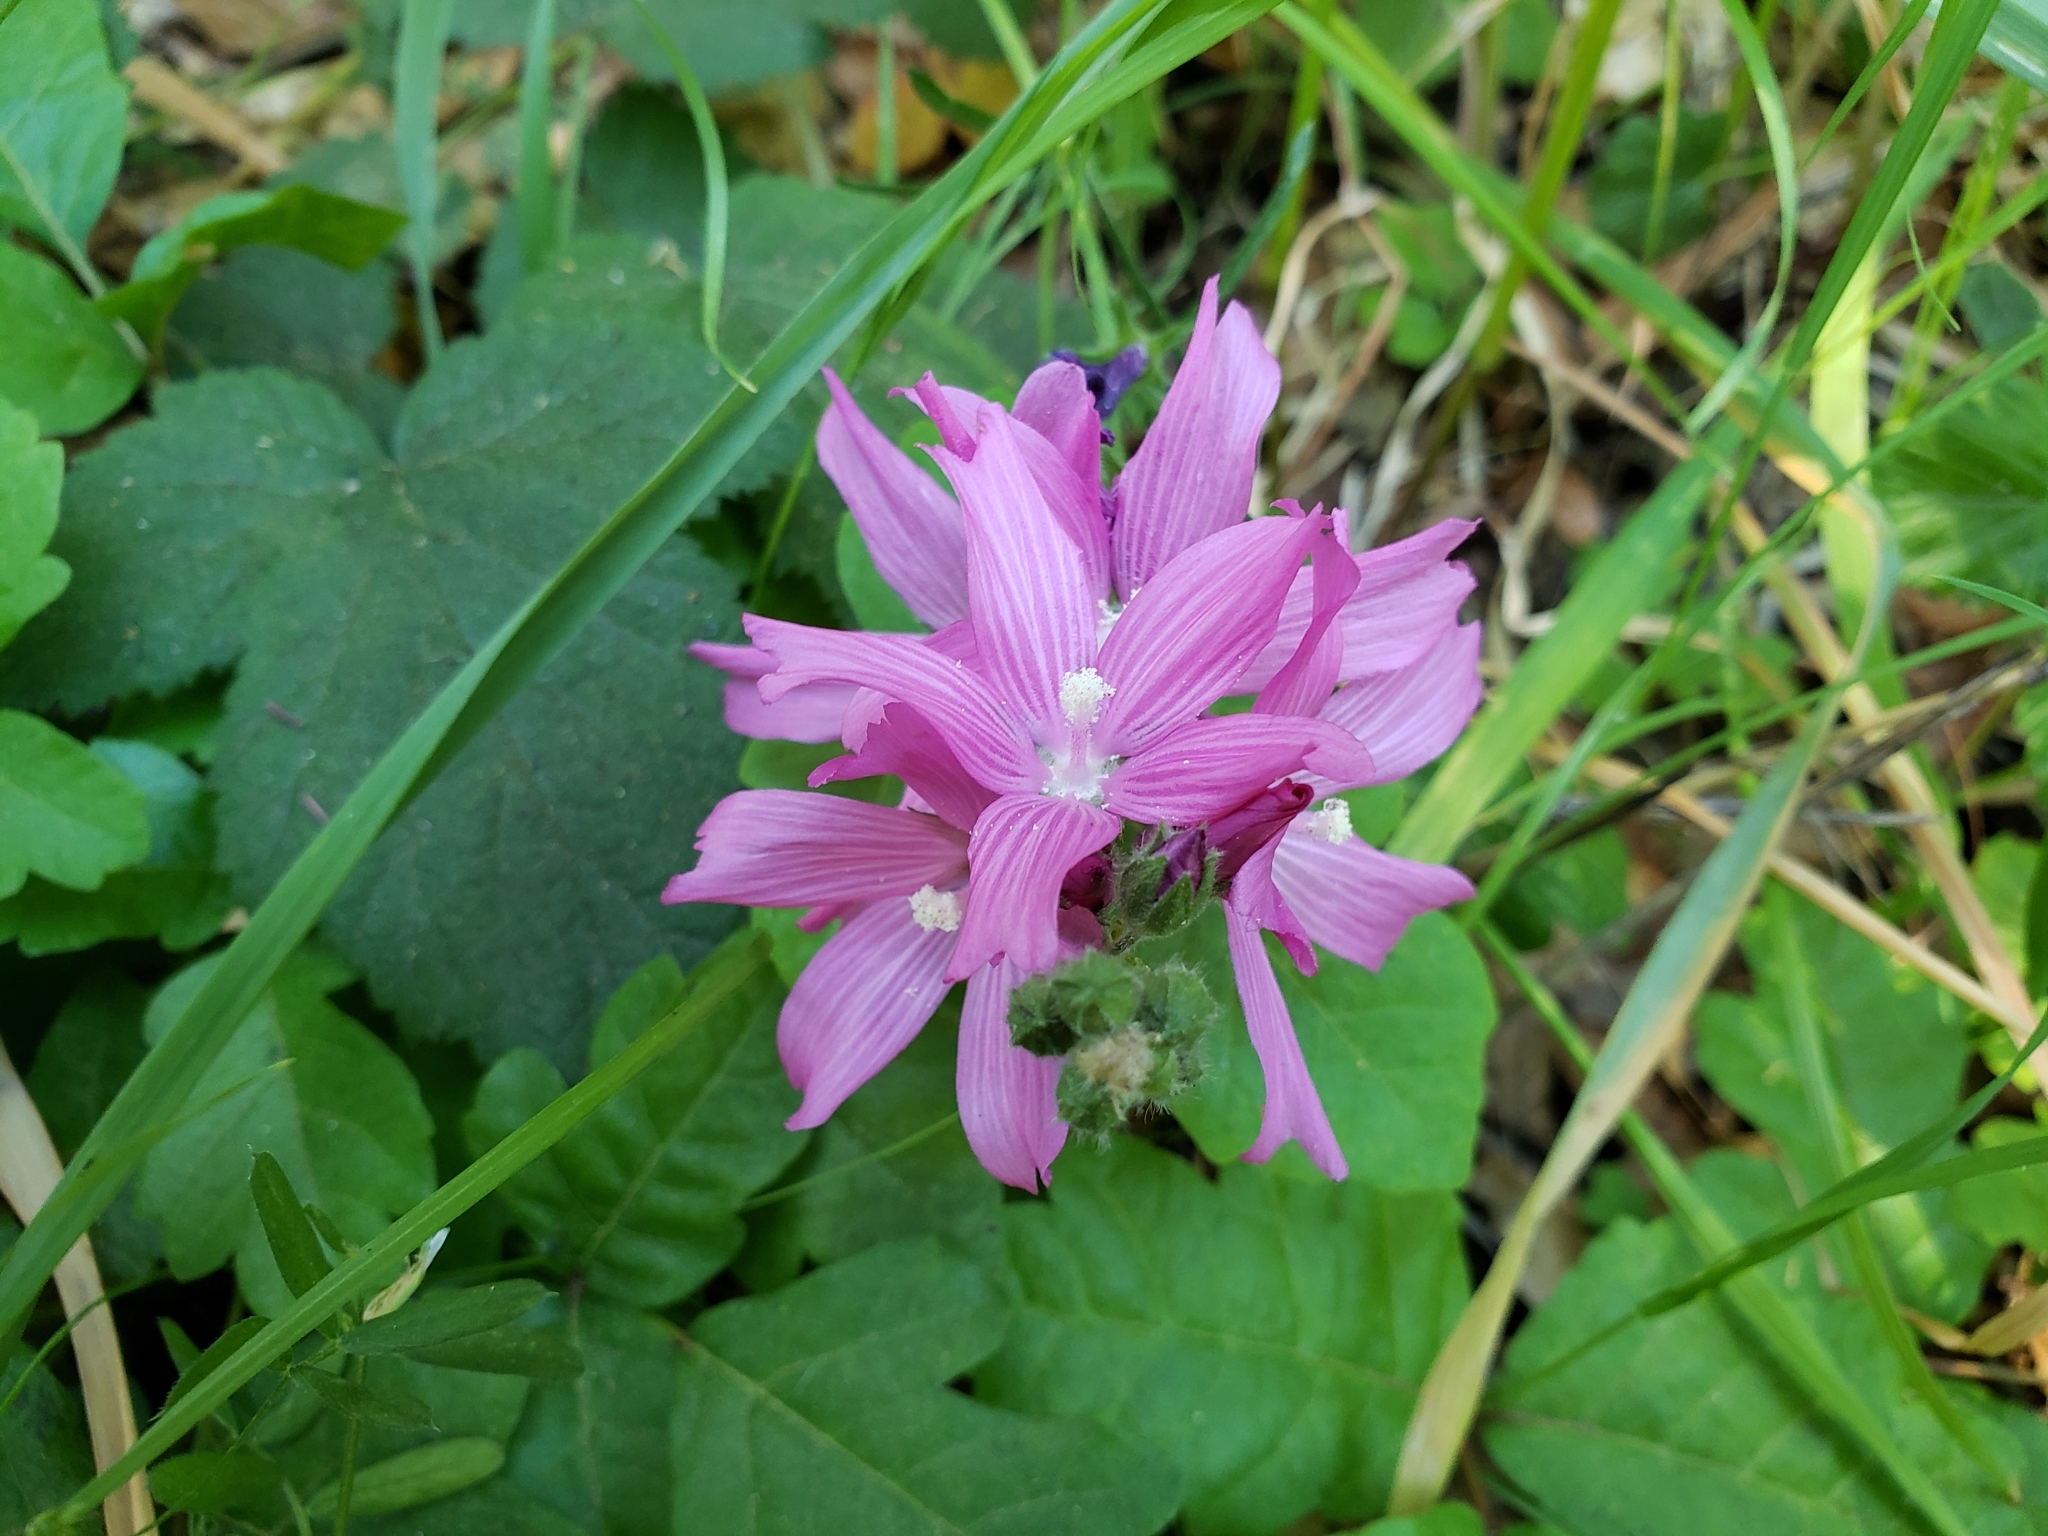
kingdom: Plantae
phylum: Tracheophyta
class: Magnoliopsida
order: Malvales
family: Malvaceae
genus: Sidalcea
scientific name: Sidalcea malviflora
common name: Greek mallow
